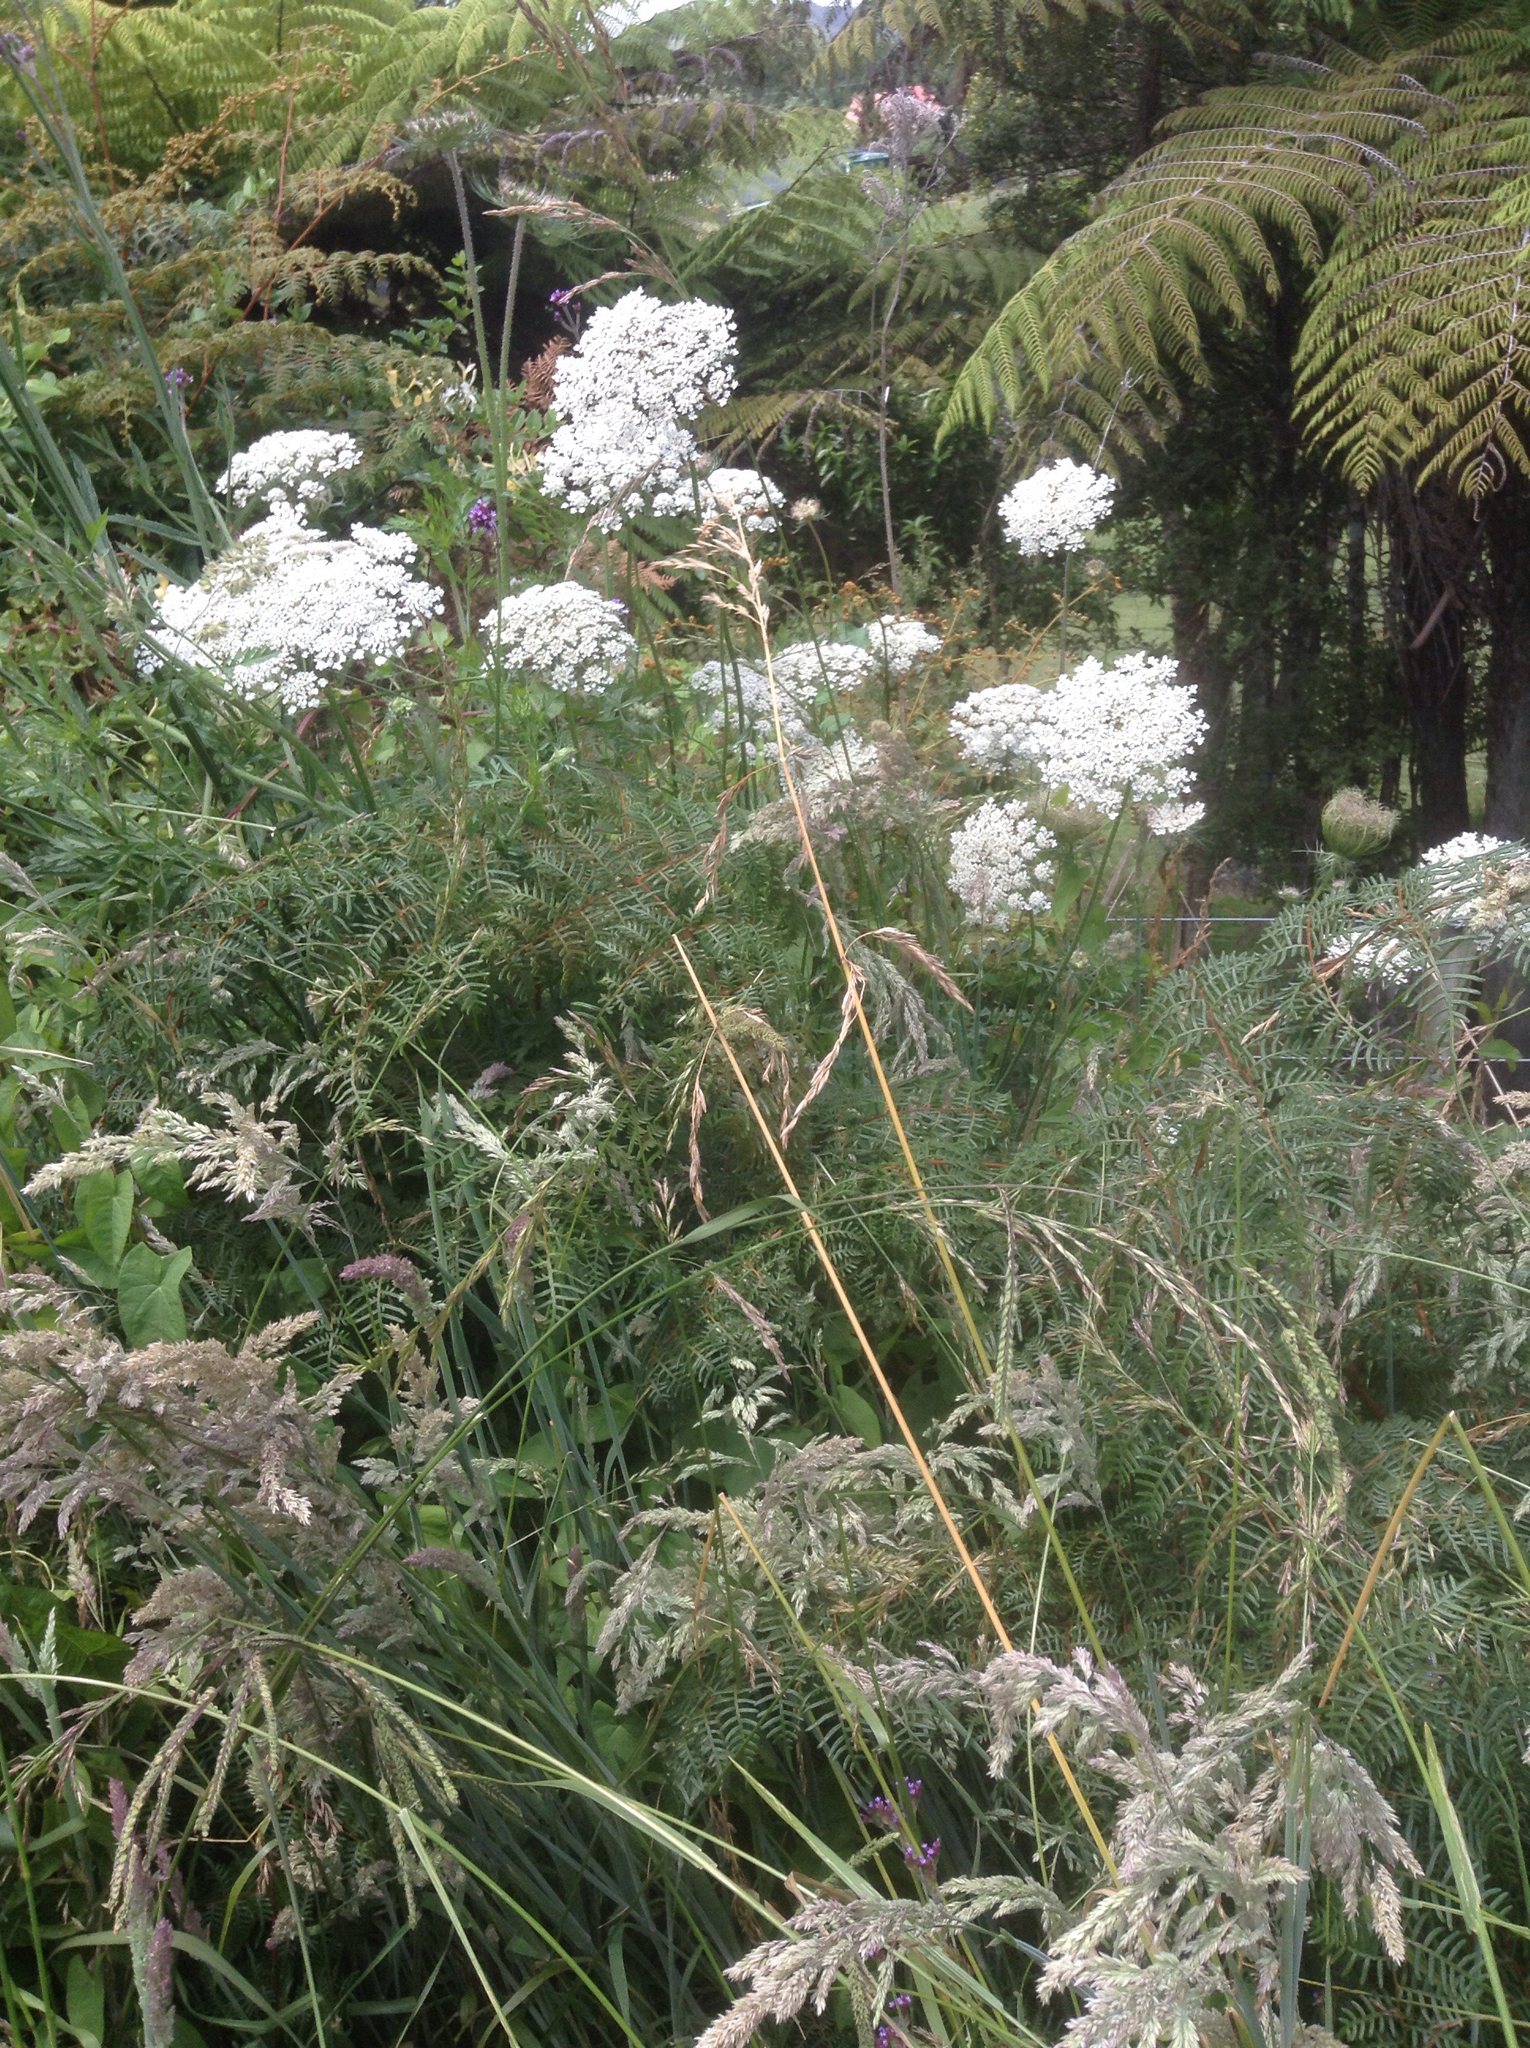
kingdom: Plantae
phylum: Tracheophyta
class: Magnoliopsida
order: Apiales
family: Apiaceae
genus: Daucus
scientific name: Daucus carota
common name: Wild carrot
